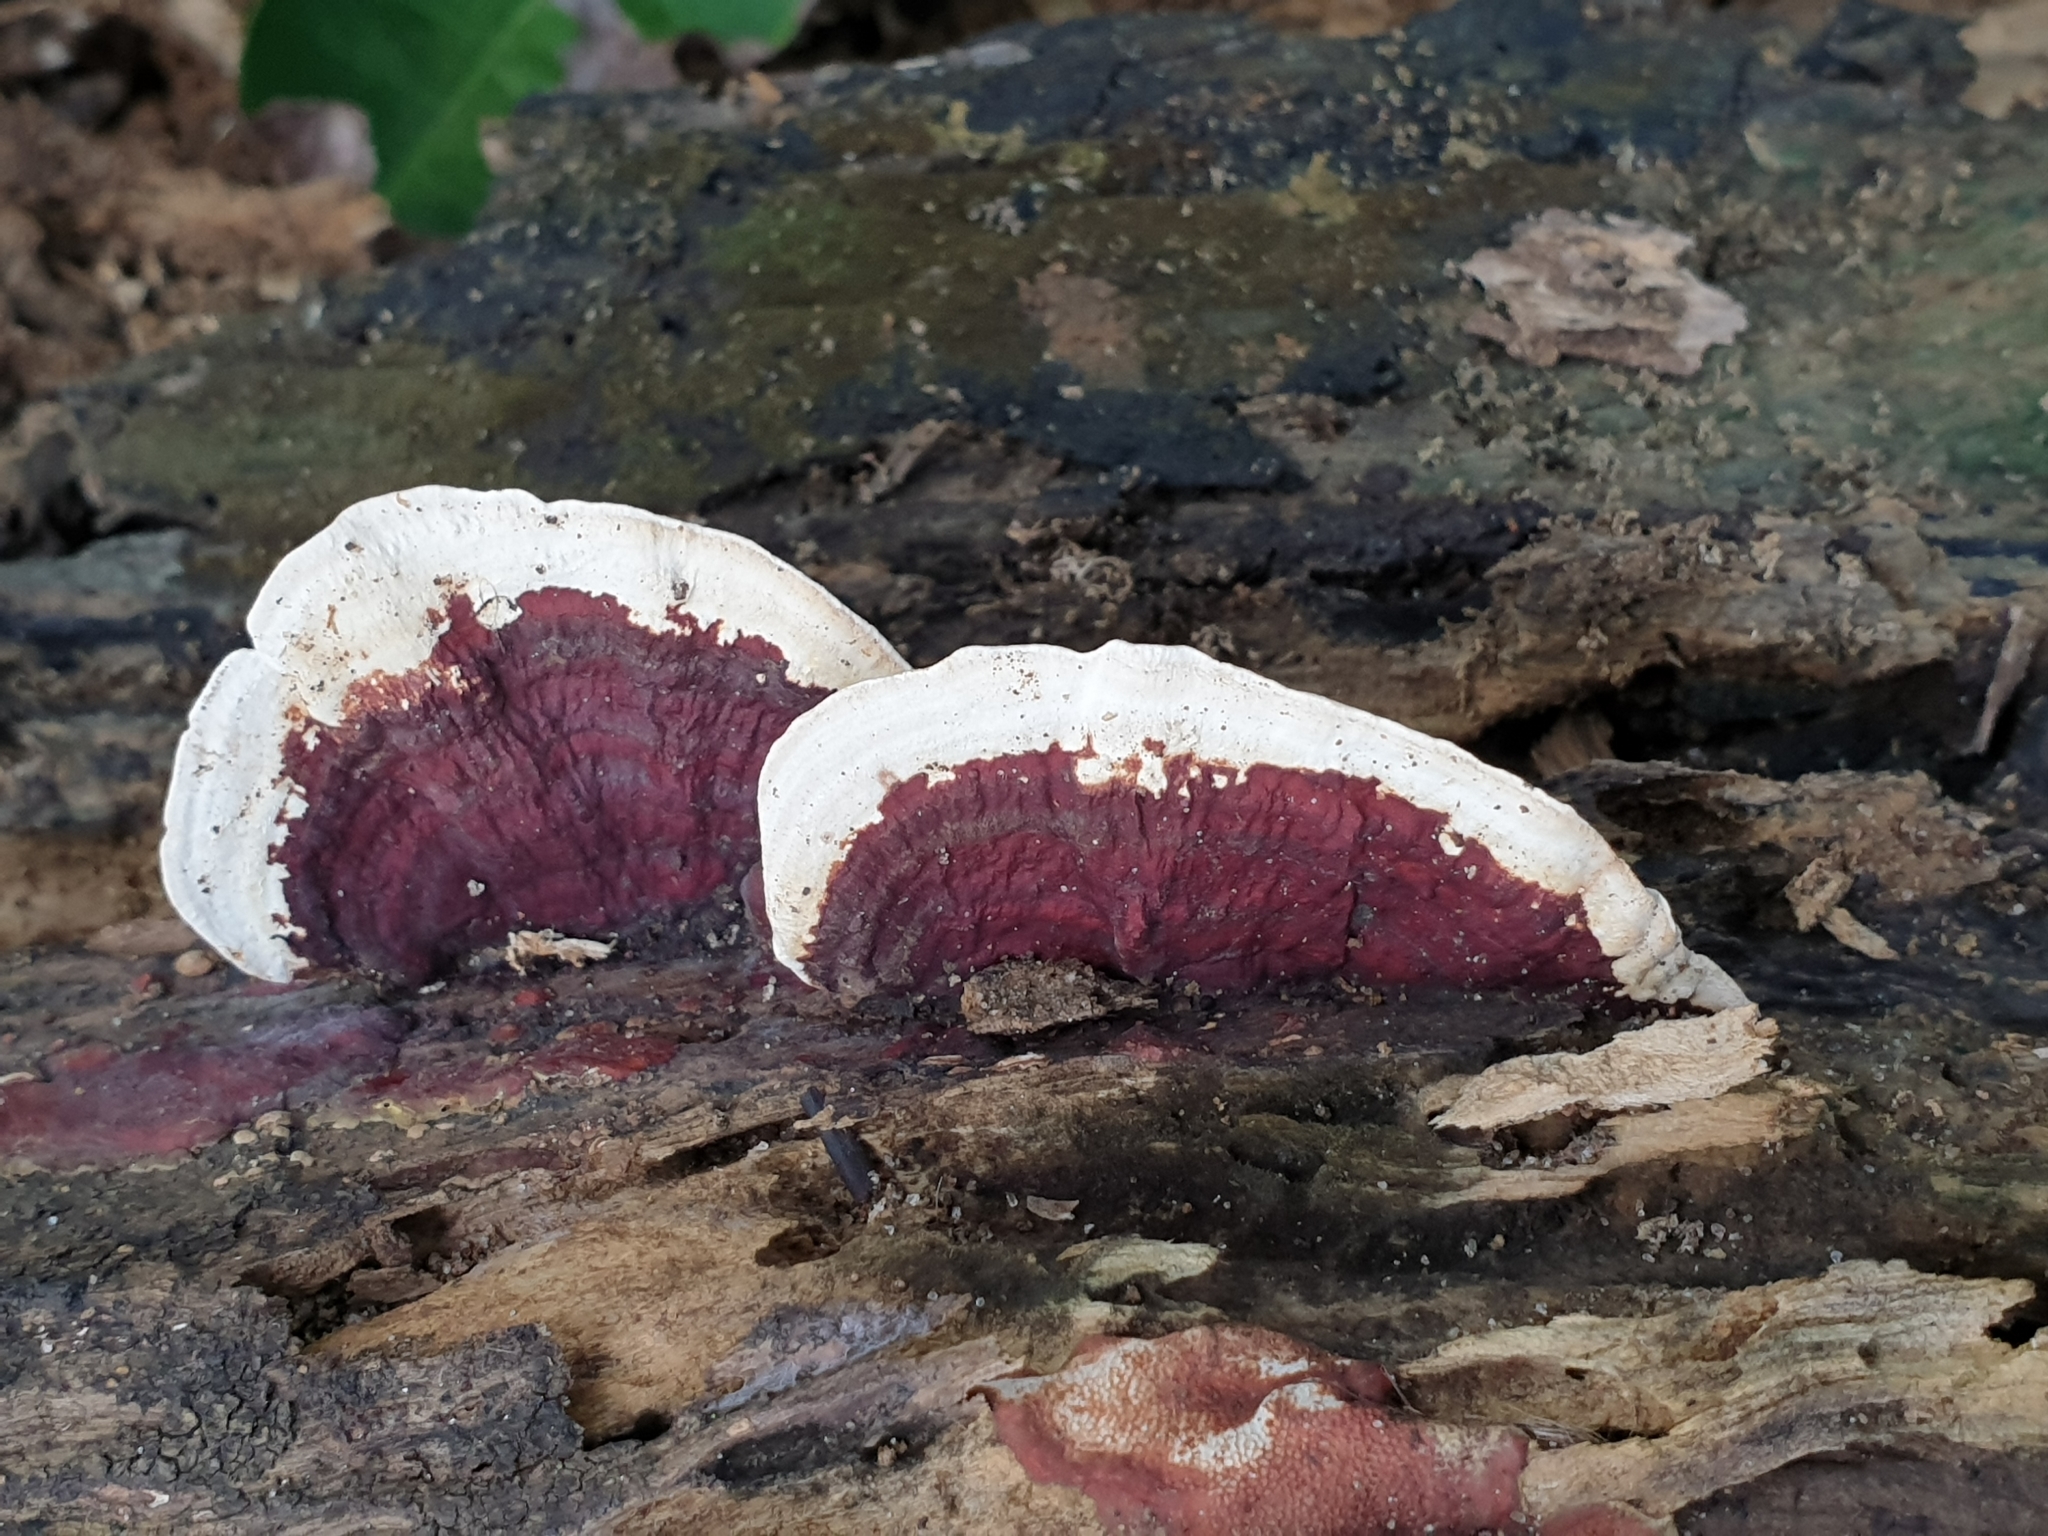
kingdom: Fungi
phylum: Basidiomycota
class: Agaricomycetes
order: Polyporales
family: Polyporaceae
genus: Earliella
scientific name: Earliella scabrosa
